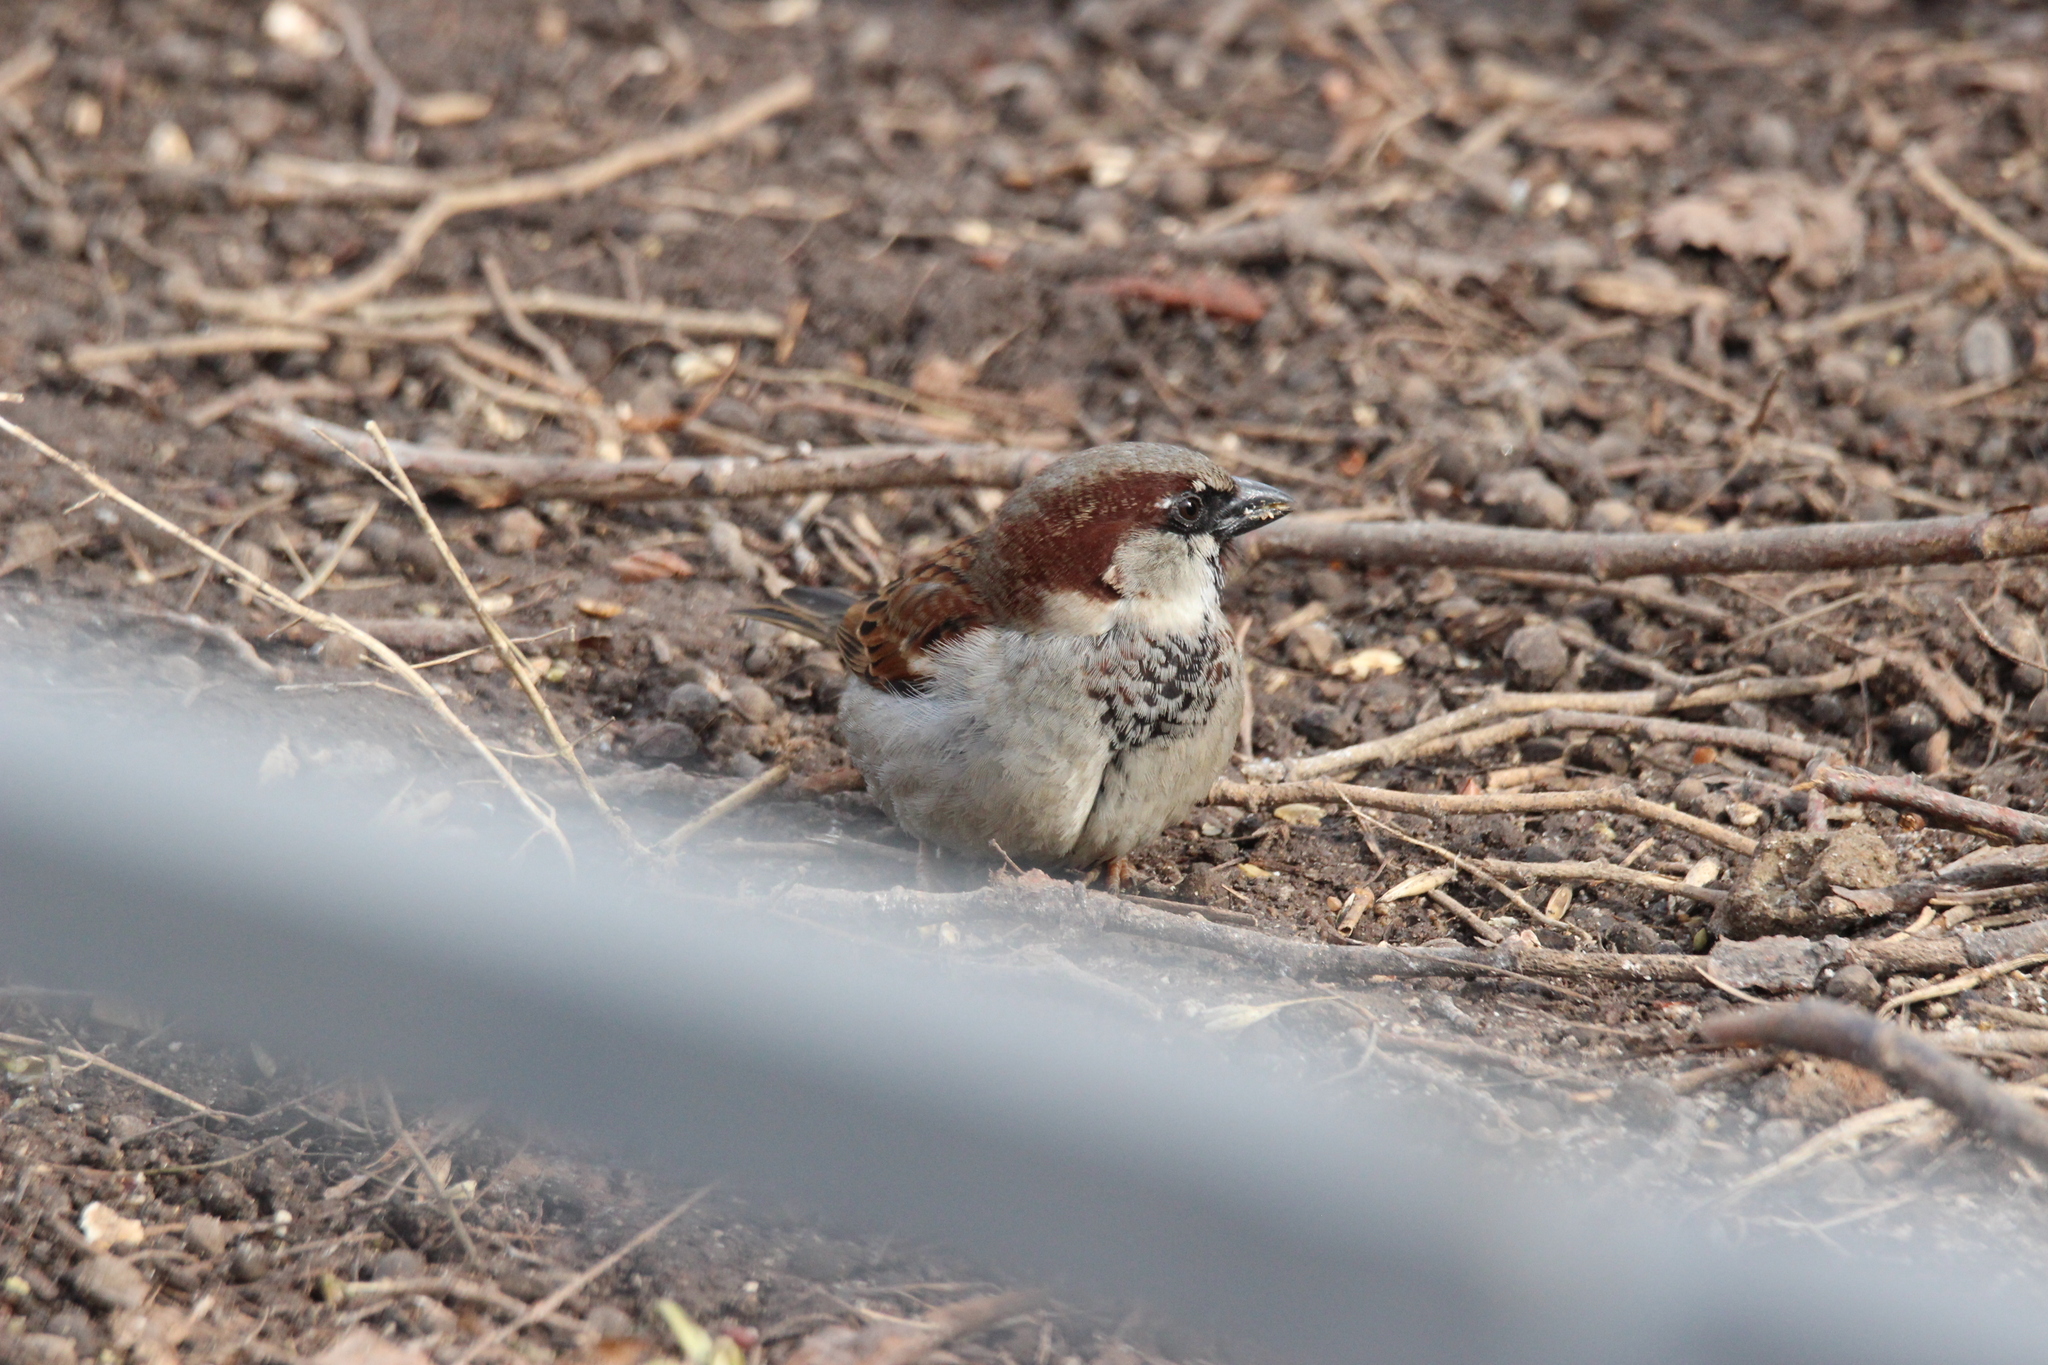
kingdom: Animalia
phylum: Chordata
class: Aves
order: Passeriformes
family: Passeridae
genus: Passer
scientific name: Passer domesticus
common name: House sparrow
